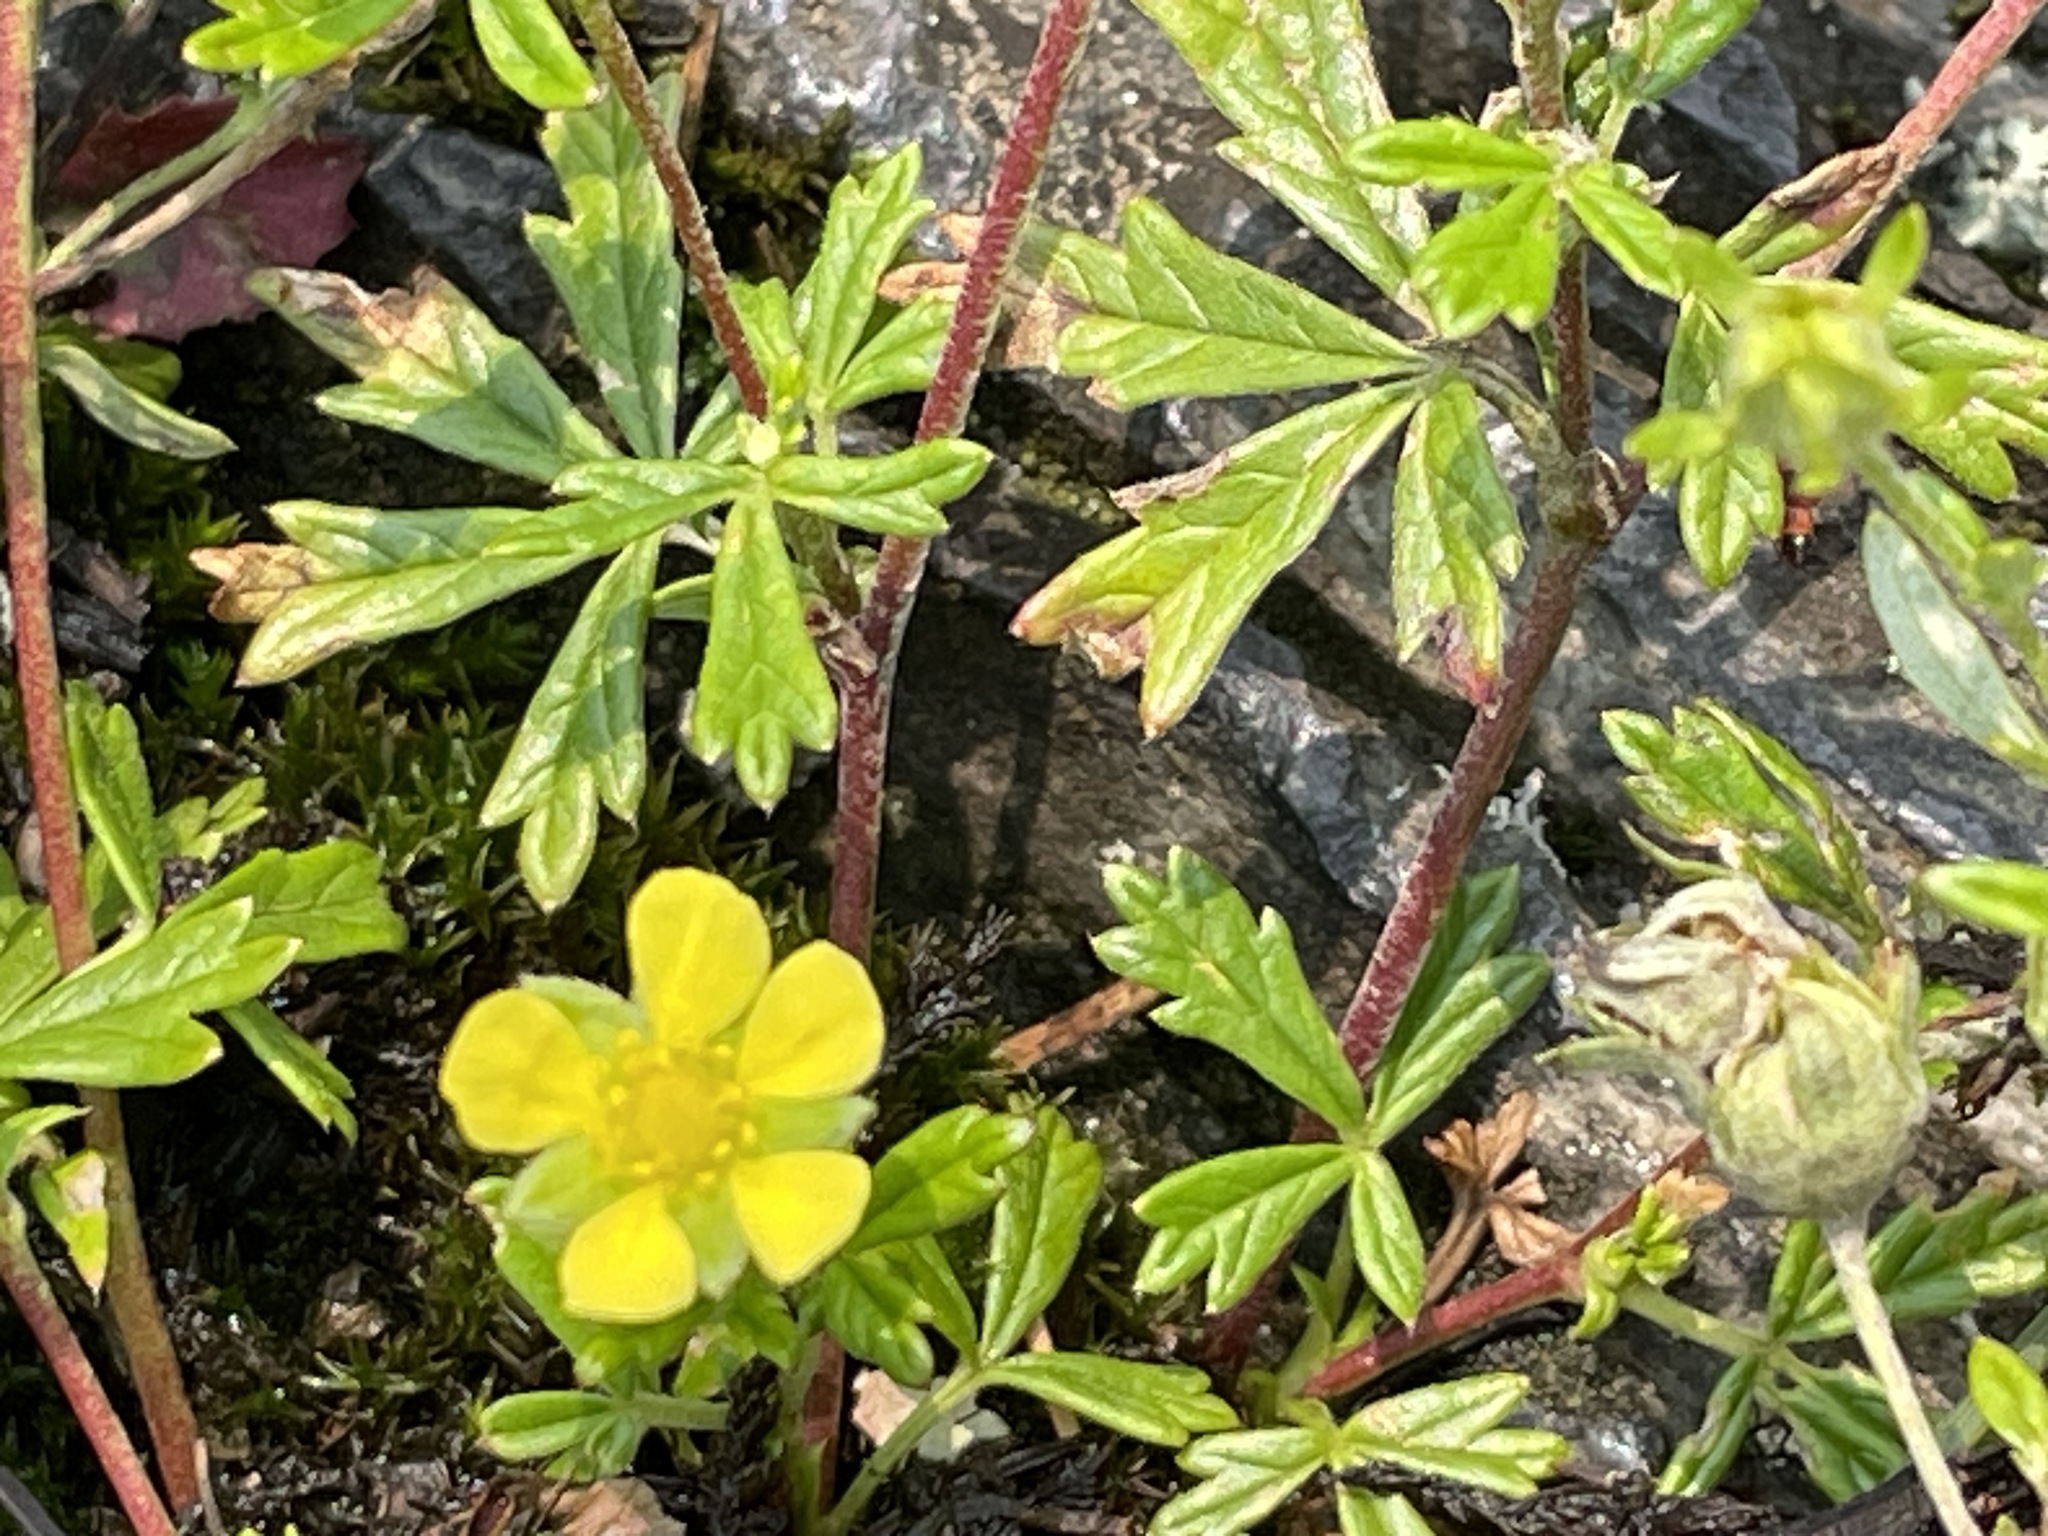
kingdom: Plantae
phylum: Tracheophyta
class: Magnoliopsida
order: Rosales
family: Rosaceae
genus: Potentilla
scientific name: Potentilla argentea
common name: Hoary cinquefoil
